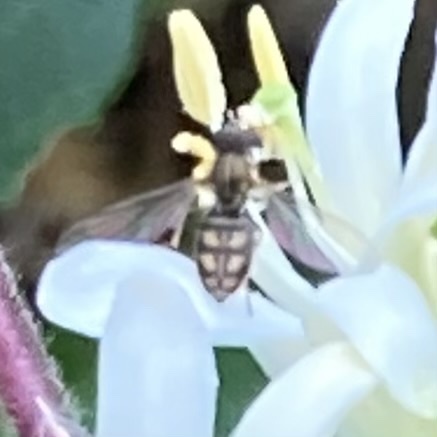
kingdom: Animalia
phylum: Arthropoda
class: Insecta
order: Diptera
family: Syrphidae
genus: Toxomerus
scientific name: Toxomerus marginatus
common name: Syrphid fly
